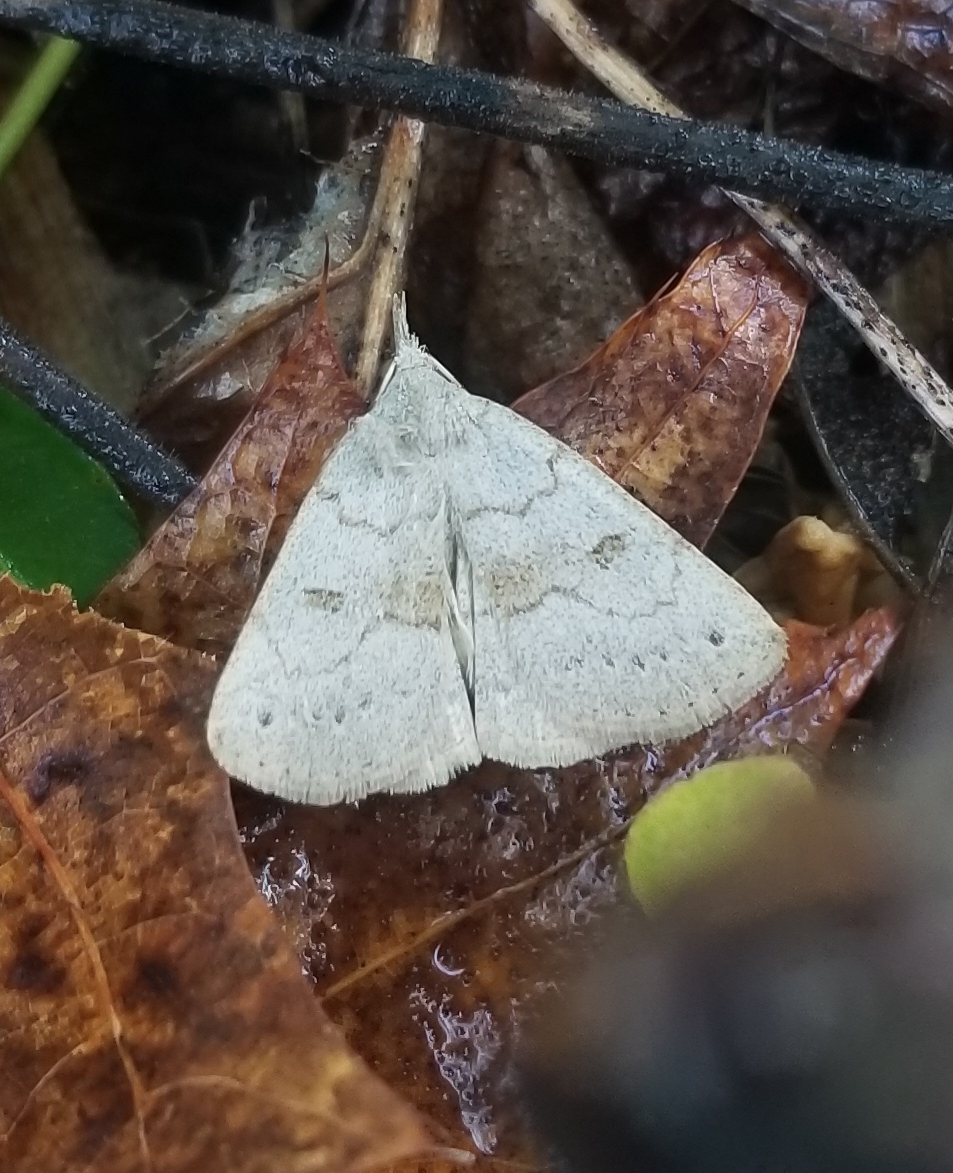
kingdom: Animalia
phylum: Arthropoda
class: Insecta
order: Lepidoptera
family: Erebidae
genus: Macrochilo
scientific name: Macrochilo morbidalis
